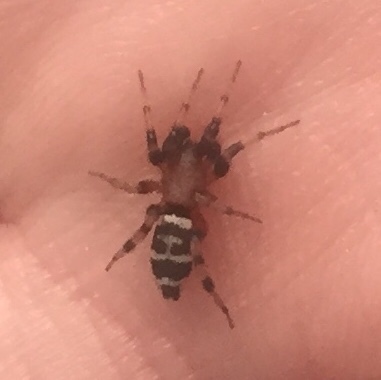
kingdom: Animalia
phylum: Arthropoda
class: Arachnida
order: Araneae
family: Gnaphosidae
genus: Sergiolus
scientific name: Sergiolus capulatus
